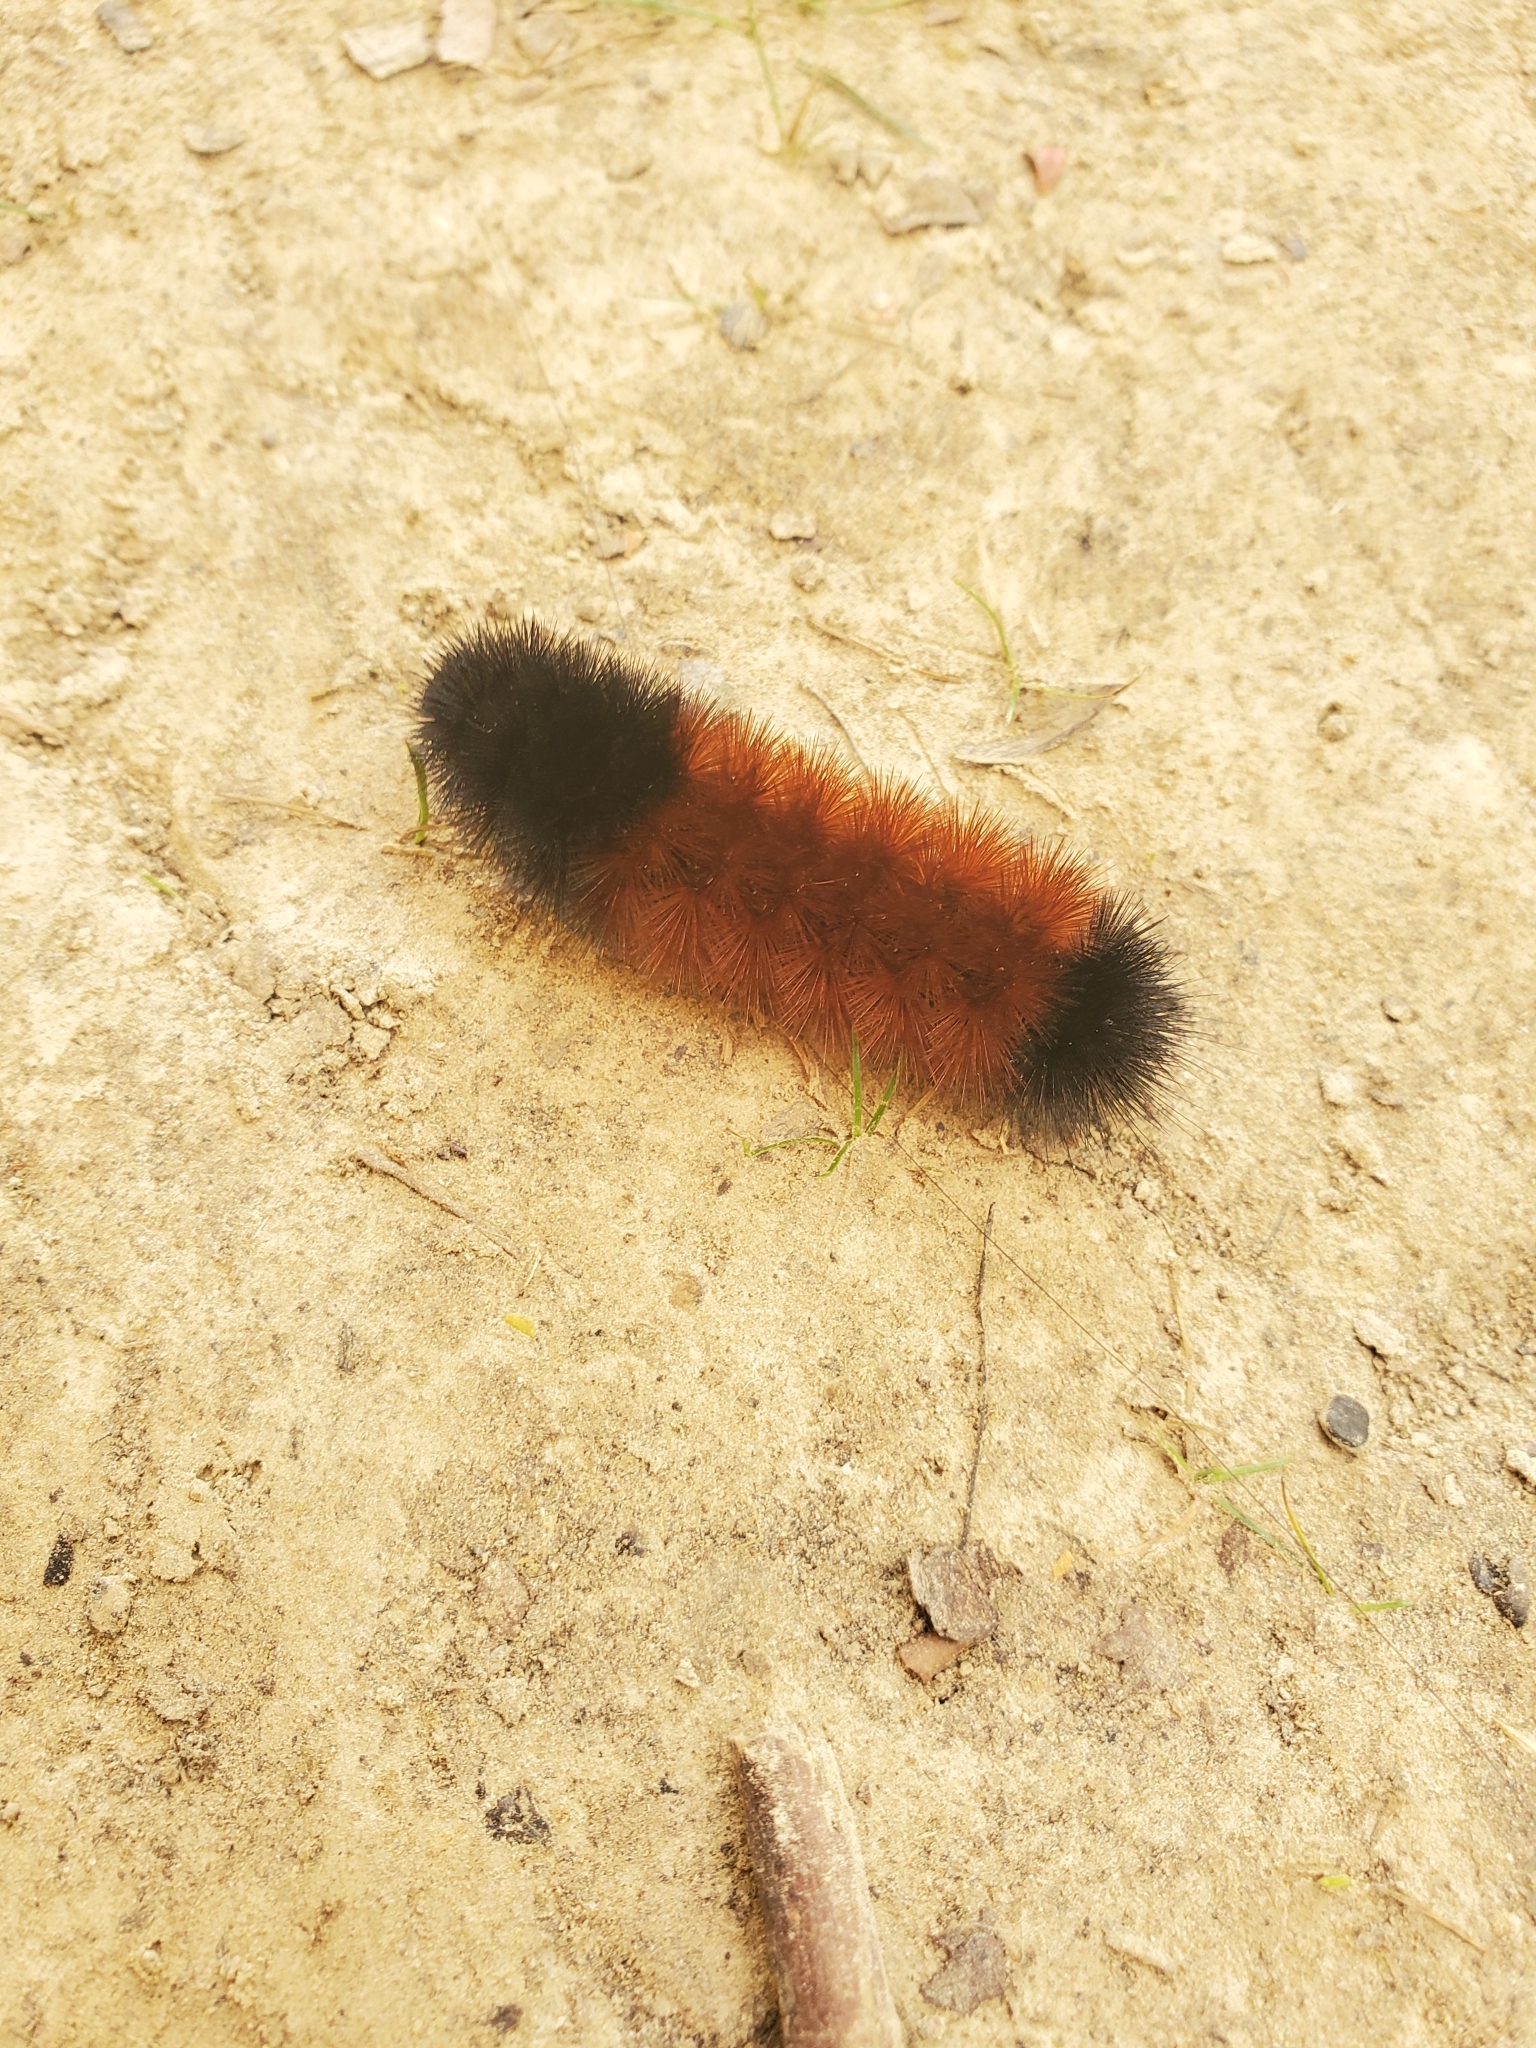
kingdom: Animalia
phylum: Arthropoda
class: Insecta
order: Lepidoptera
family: Erebidae
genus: Pyrrharctia
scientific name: Pyrrharctia isabella
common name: Isabella tiger moth
